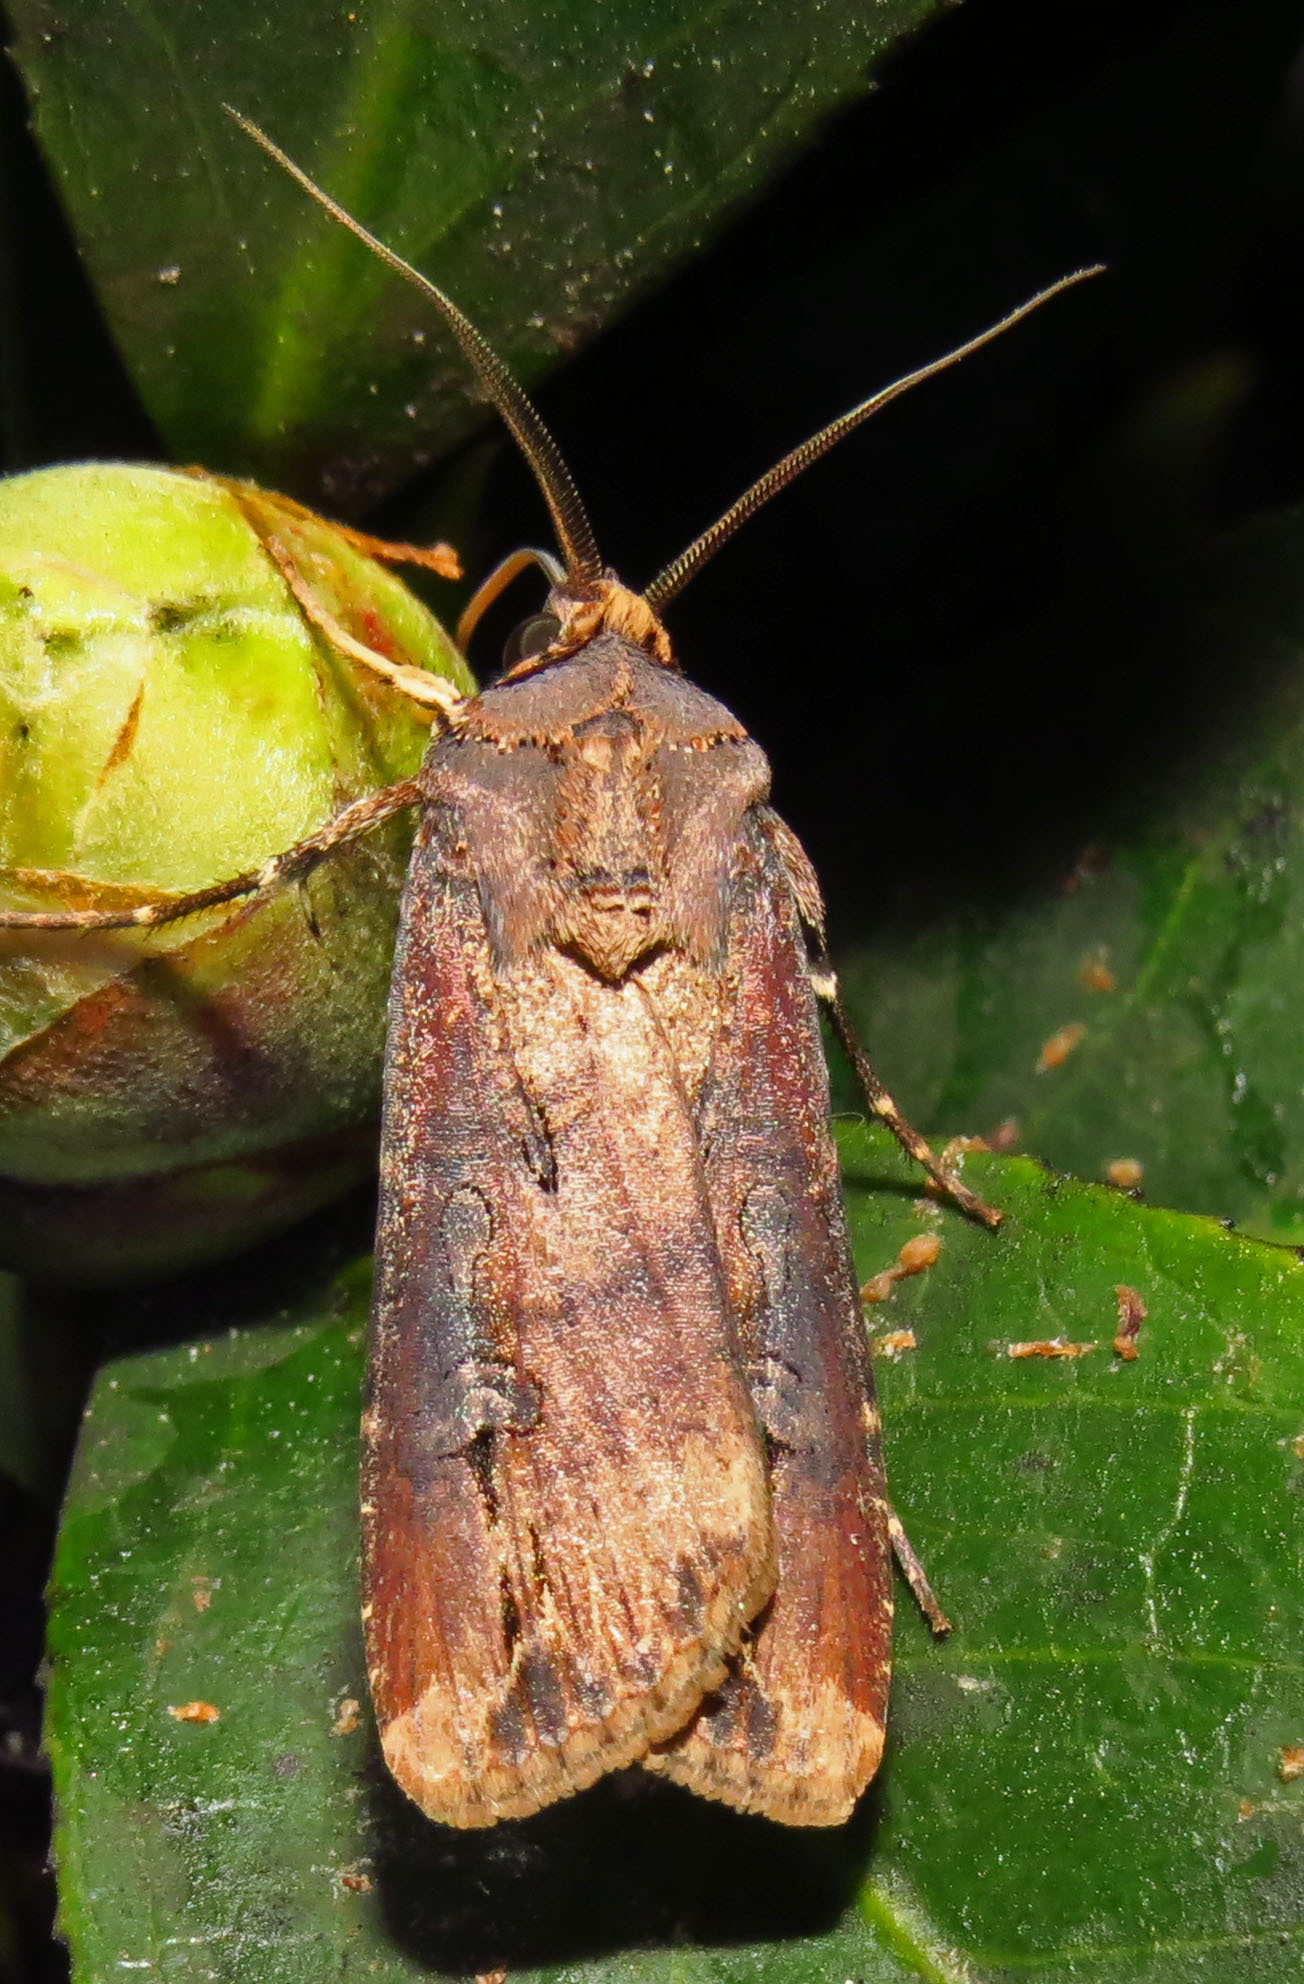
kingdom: Animalia
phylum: Arthropoda
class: Insecta
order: Lepidoptera
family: Noctuidae
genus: Agrotis
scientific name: Agrotis ipsilon
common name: Dark sword-grass
